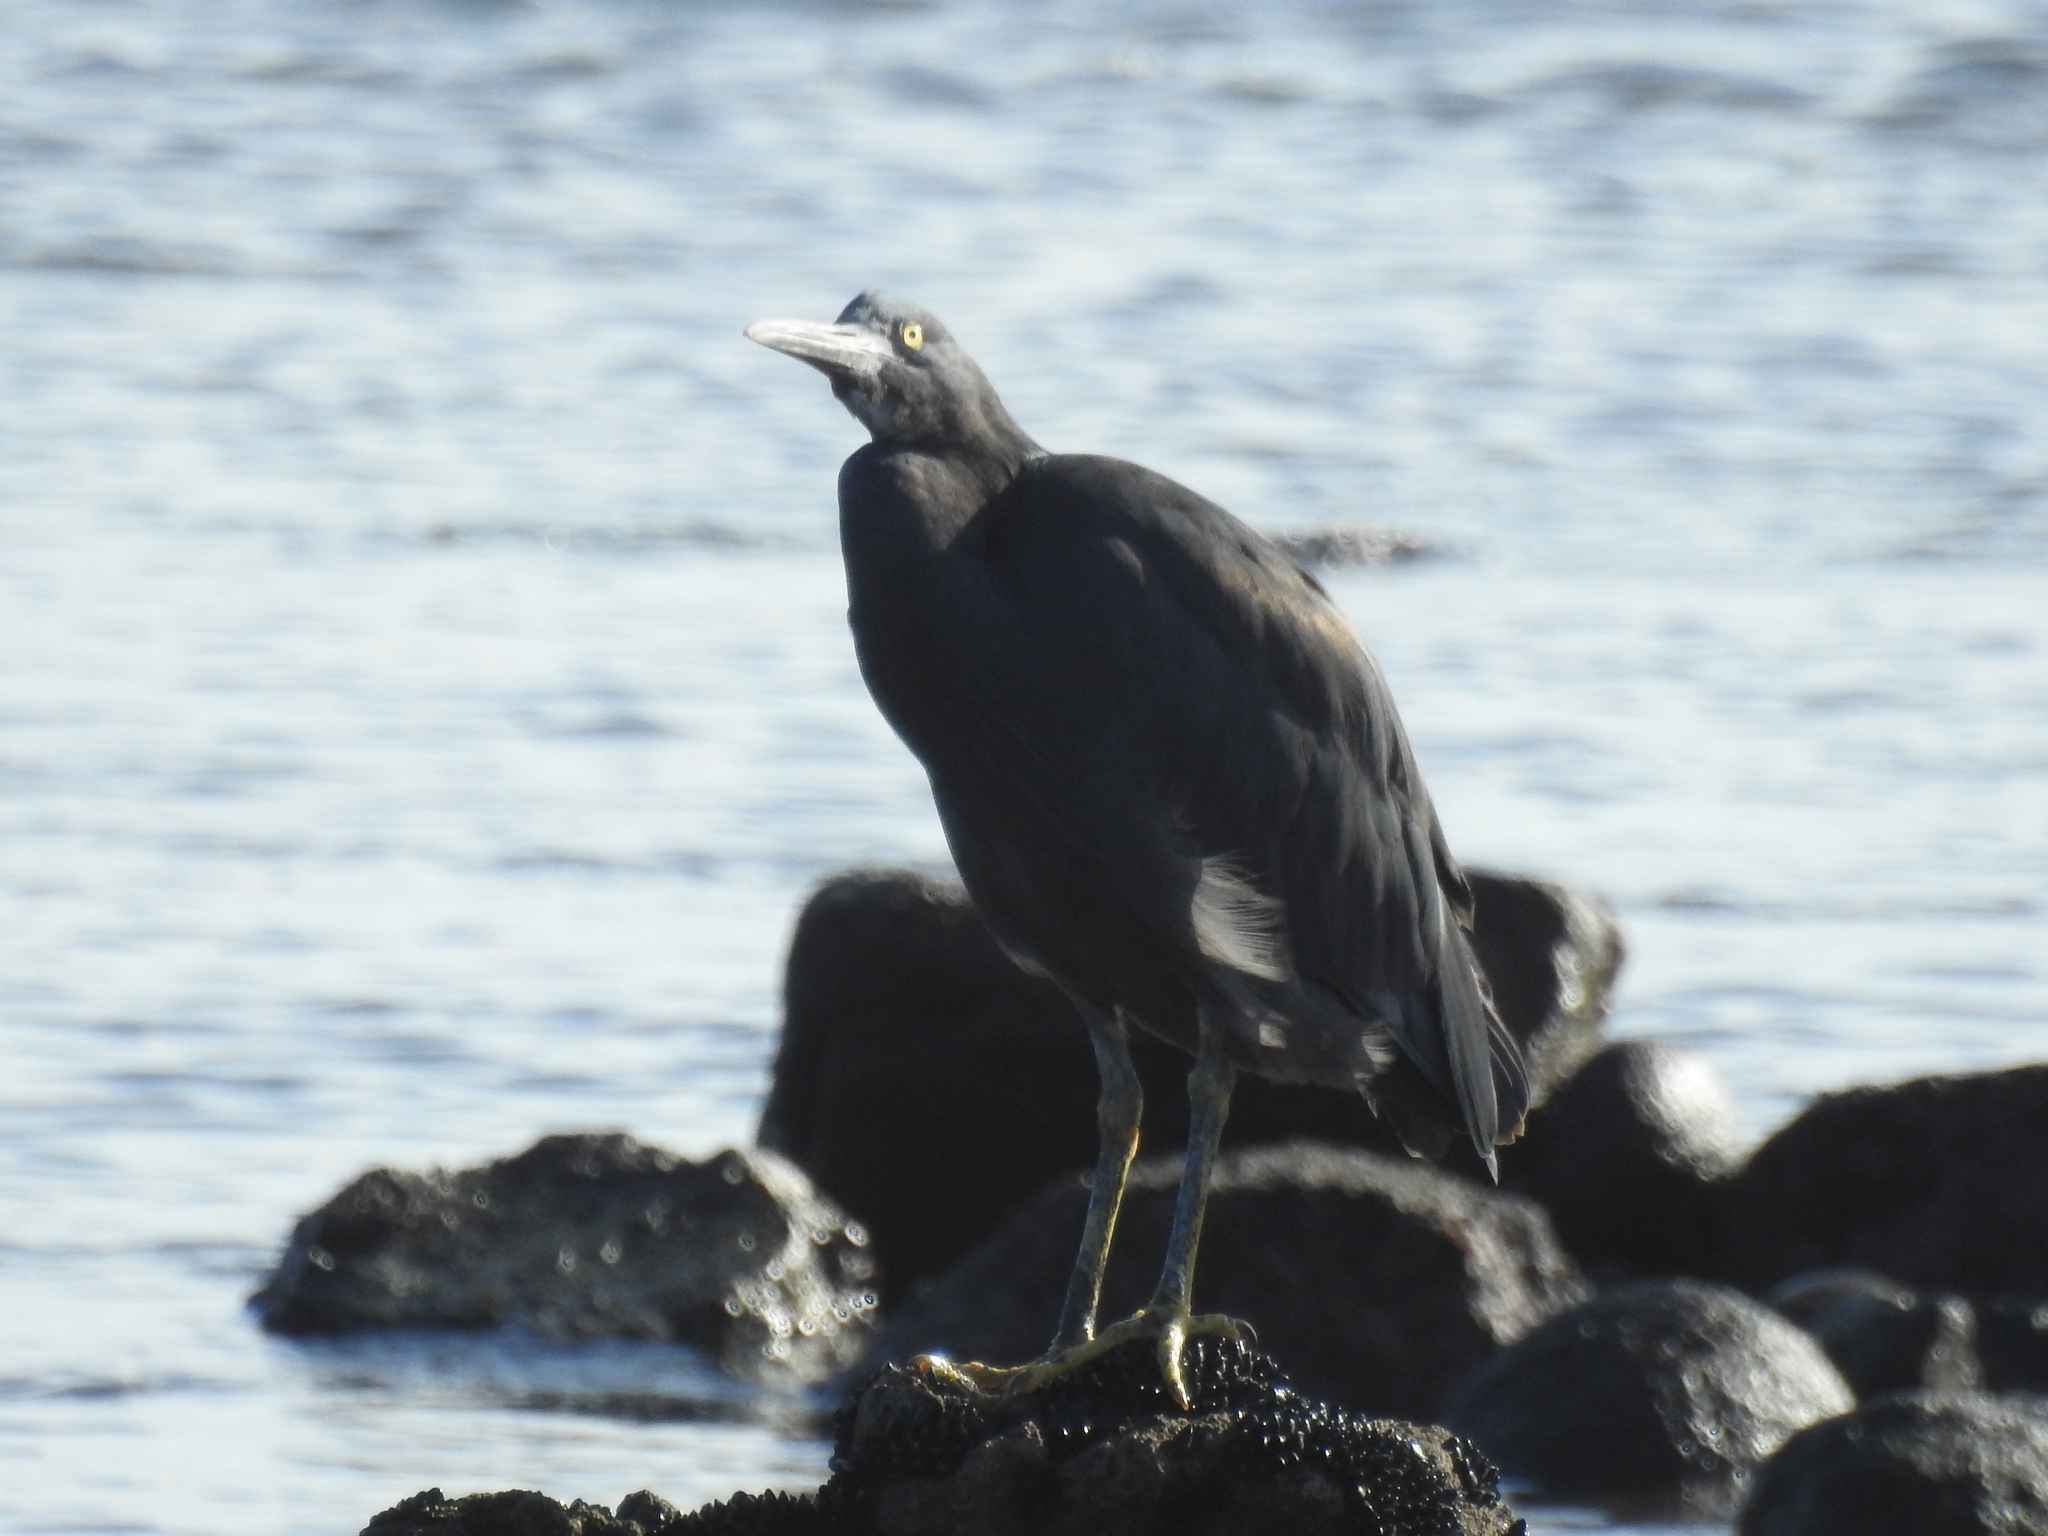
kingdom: Animalia
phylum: Chordata
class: Aves
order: Pelecaniformes
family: Ardeidae
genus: Egretta
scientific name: Egretta sacra
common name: Pacific reef heron
